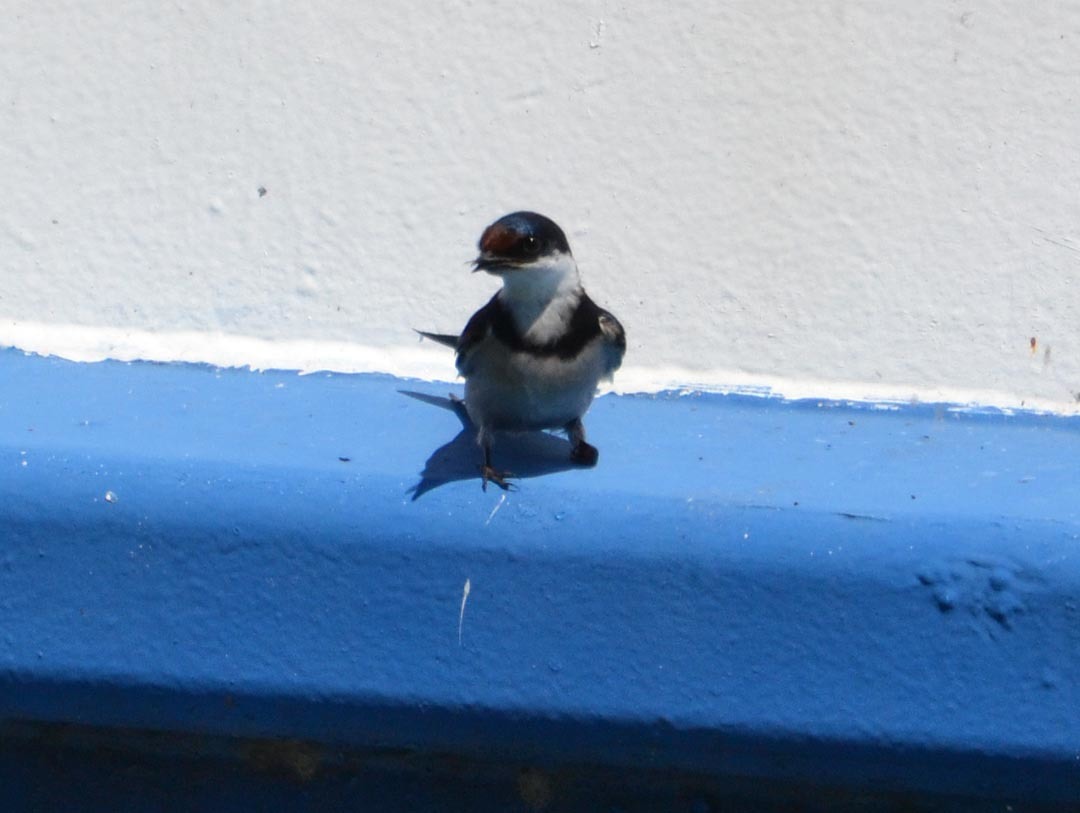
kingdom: Animalia
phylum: Chordata
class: Aves
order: Passeriformes
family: Hirundinidae
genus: Hirundo
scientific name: Hirundo albigularis
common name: White-throated swallow
